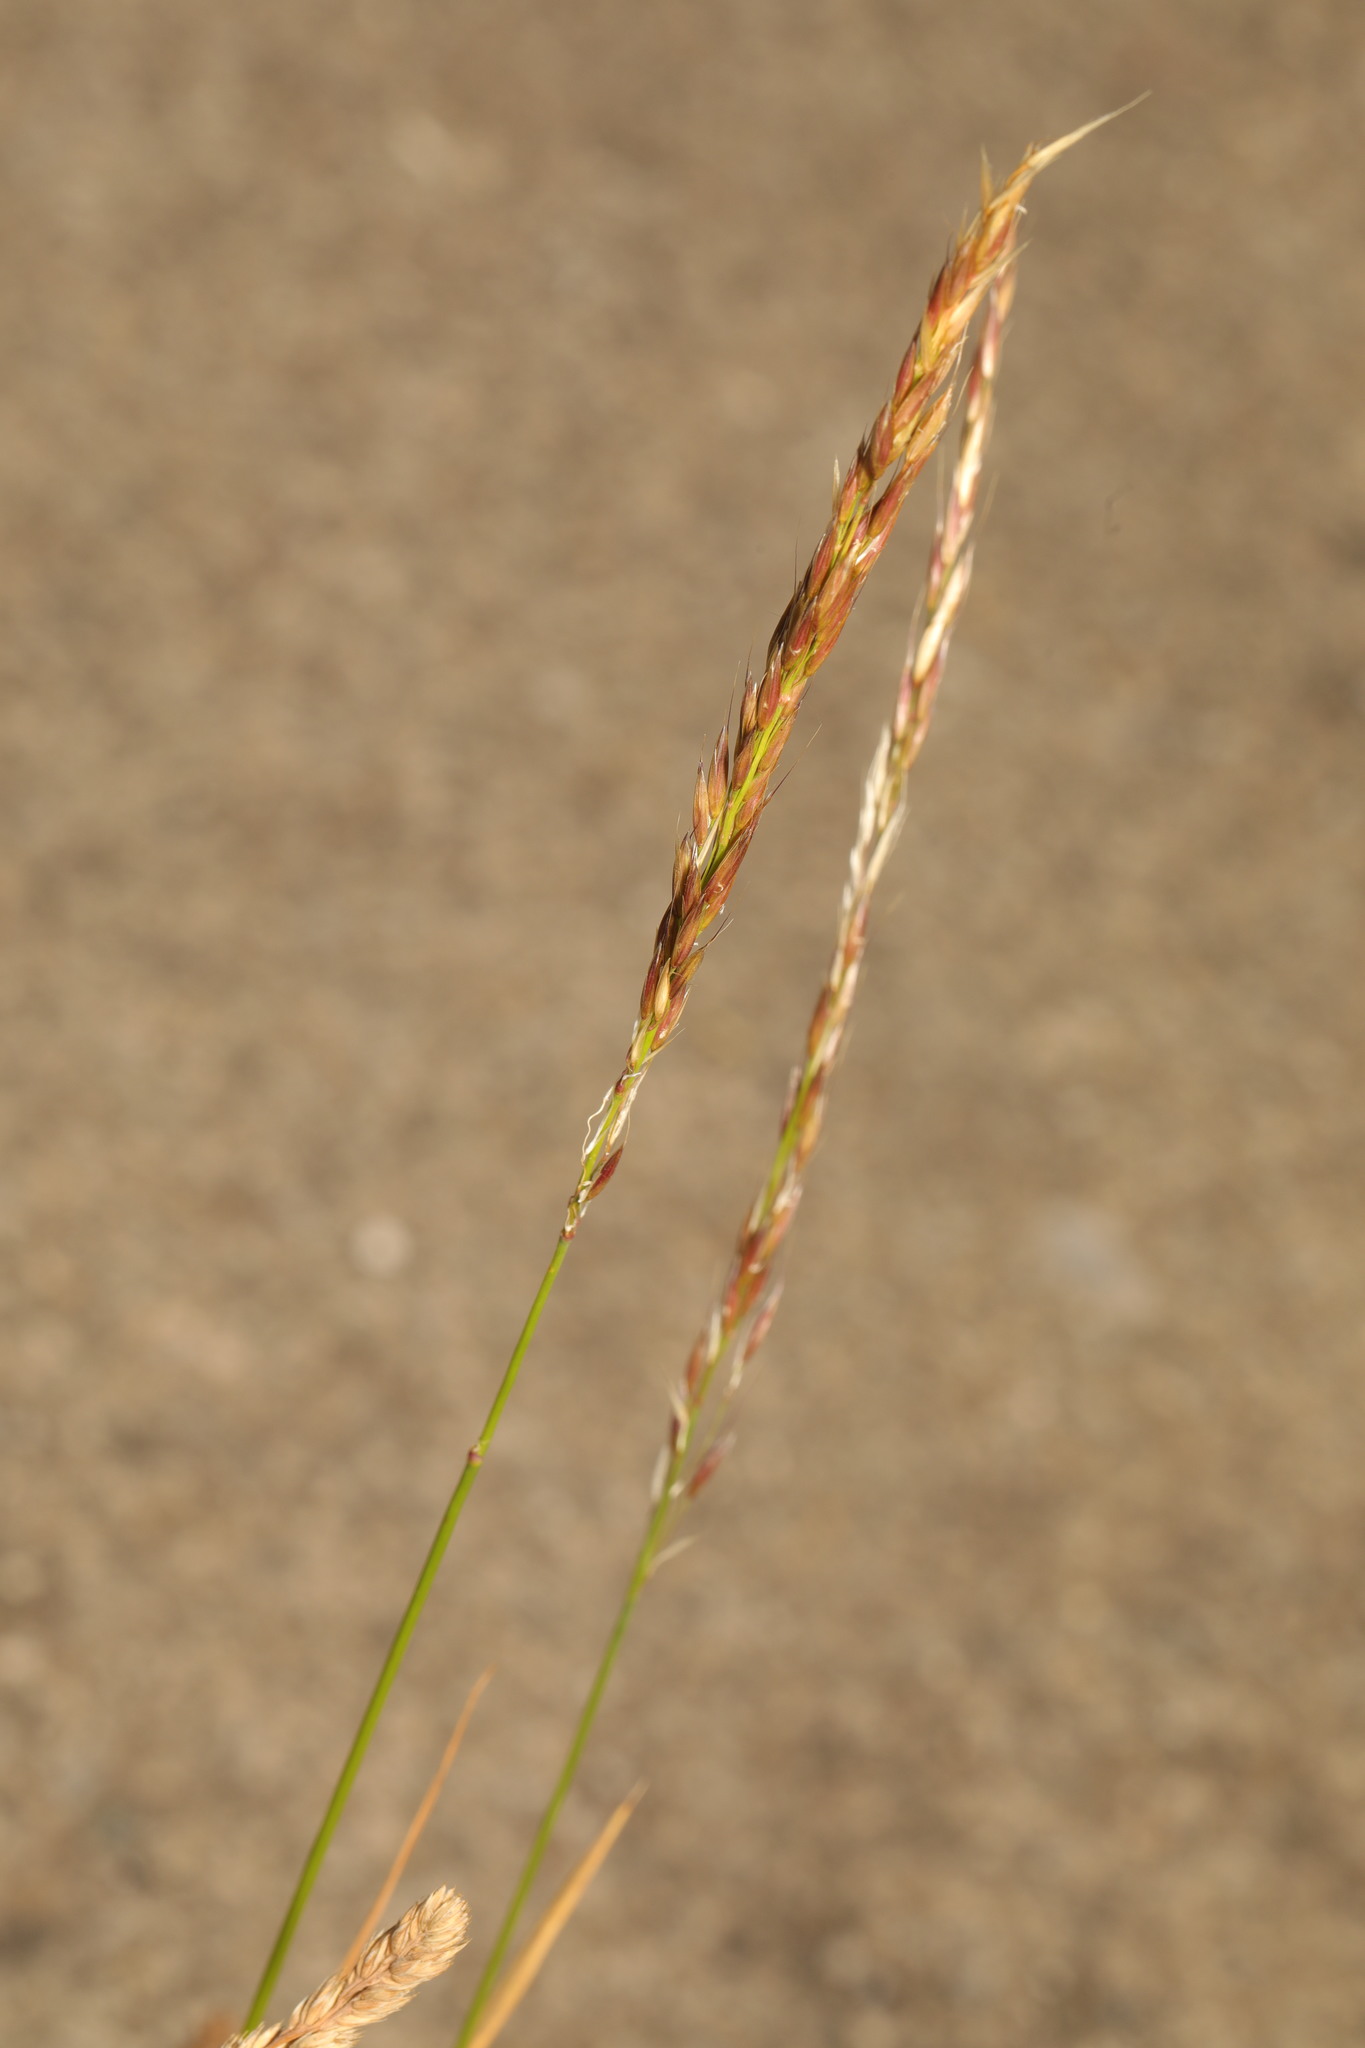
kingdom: Plantae
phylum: Tracheophyta
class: Liliopsida
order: Poales
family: Poaceae
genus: Festuca
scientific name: Festuca rubra
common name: Red fescue
